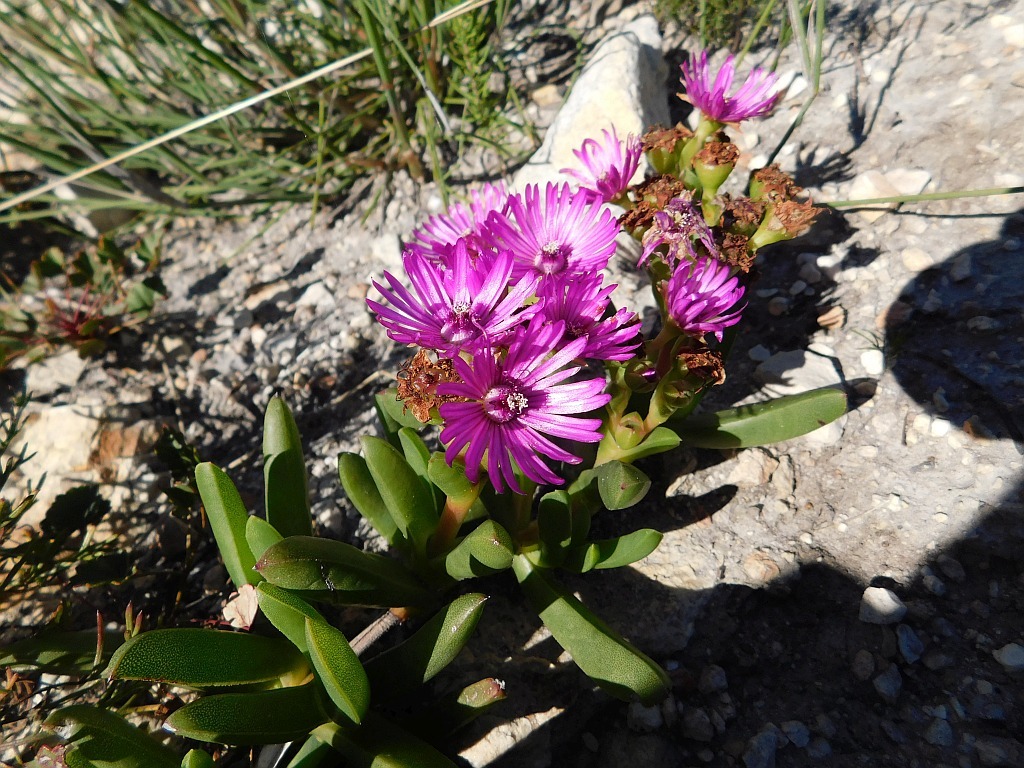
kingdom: Plantae
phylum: Tracheophyta
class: Magnoliopsida
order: Caryophyllales
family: Aizoaceae
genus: Ruschia
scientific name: Ruschia schollii
